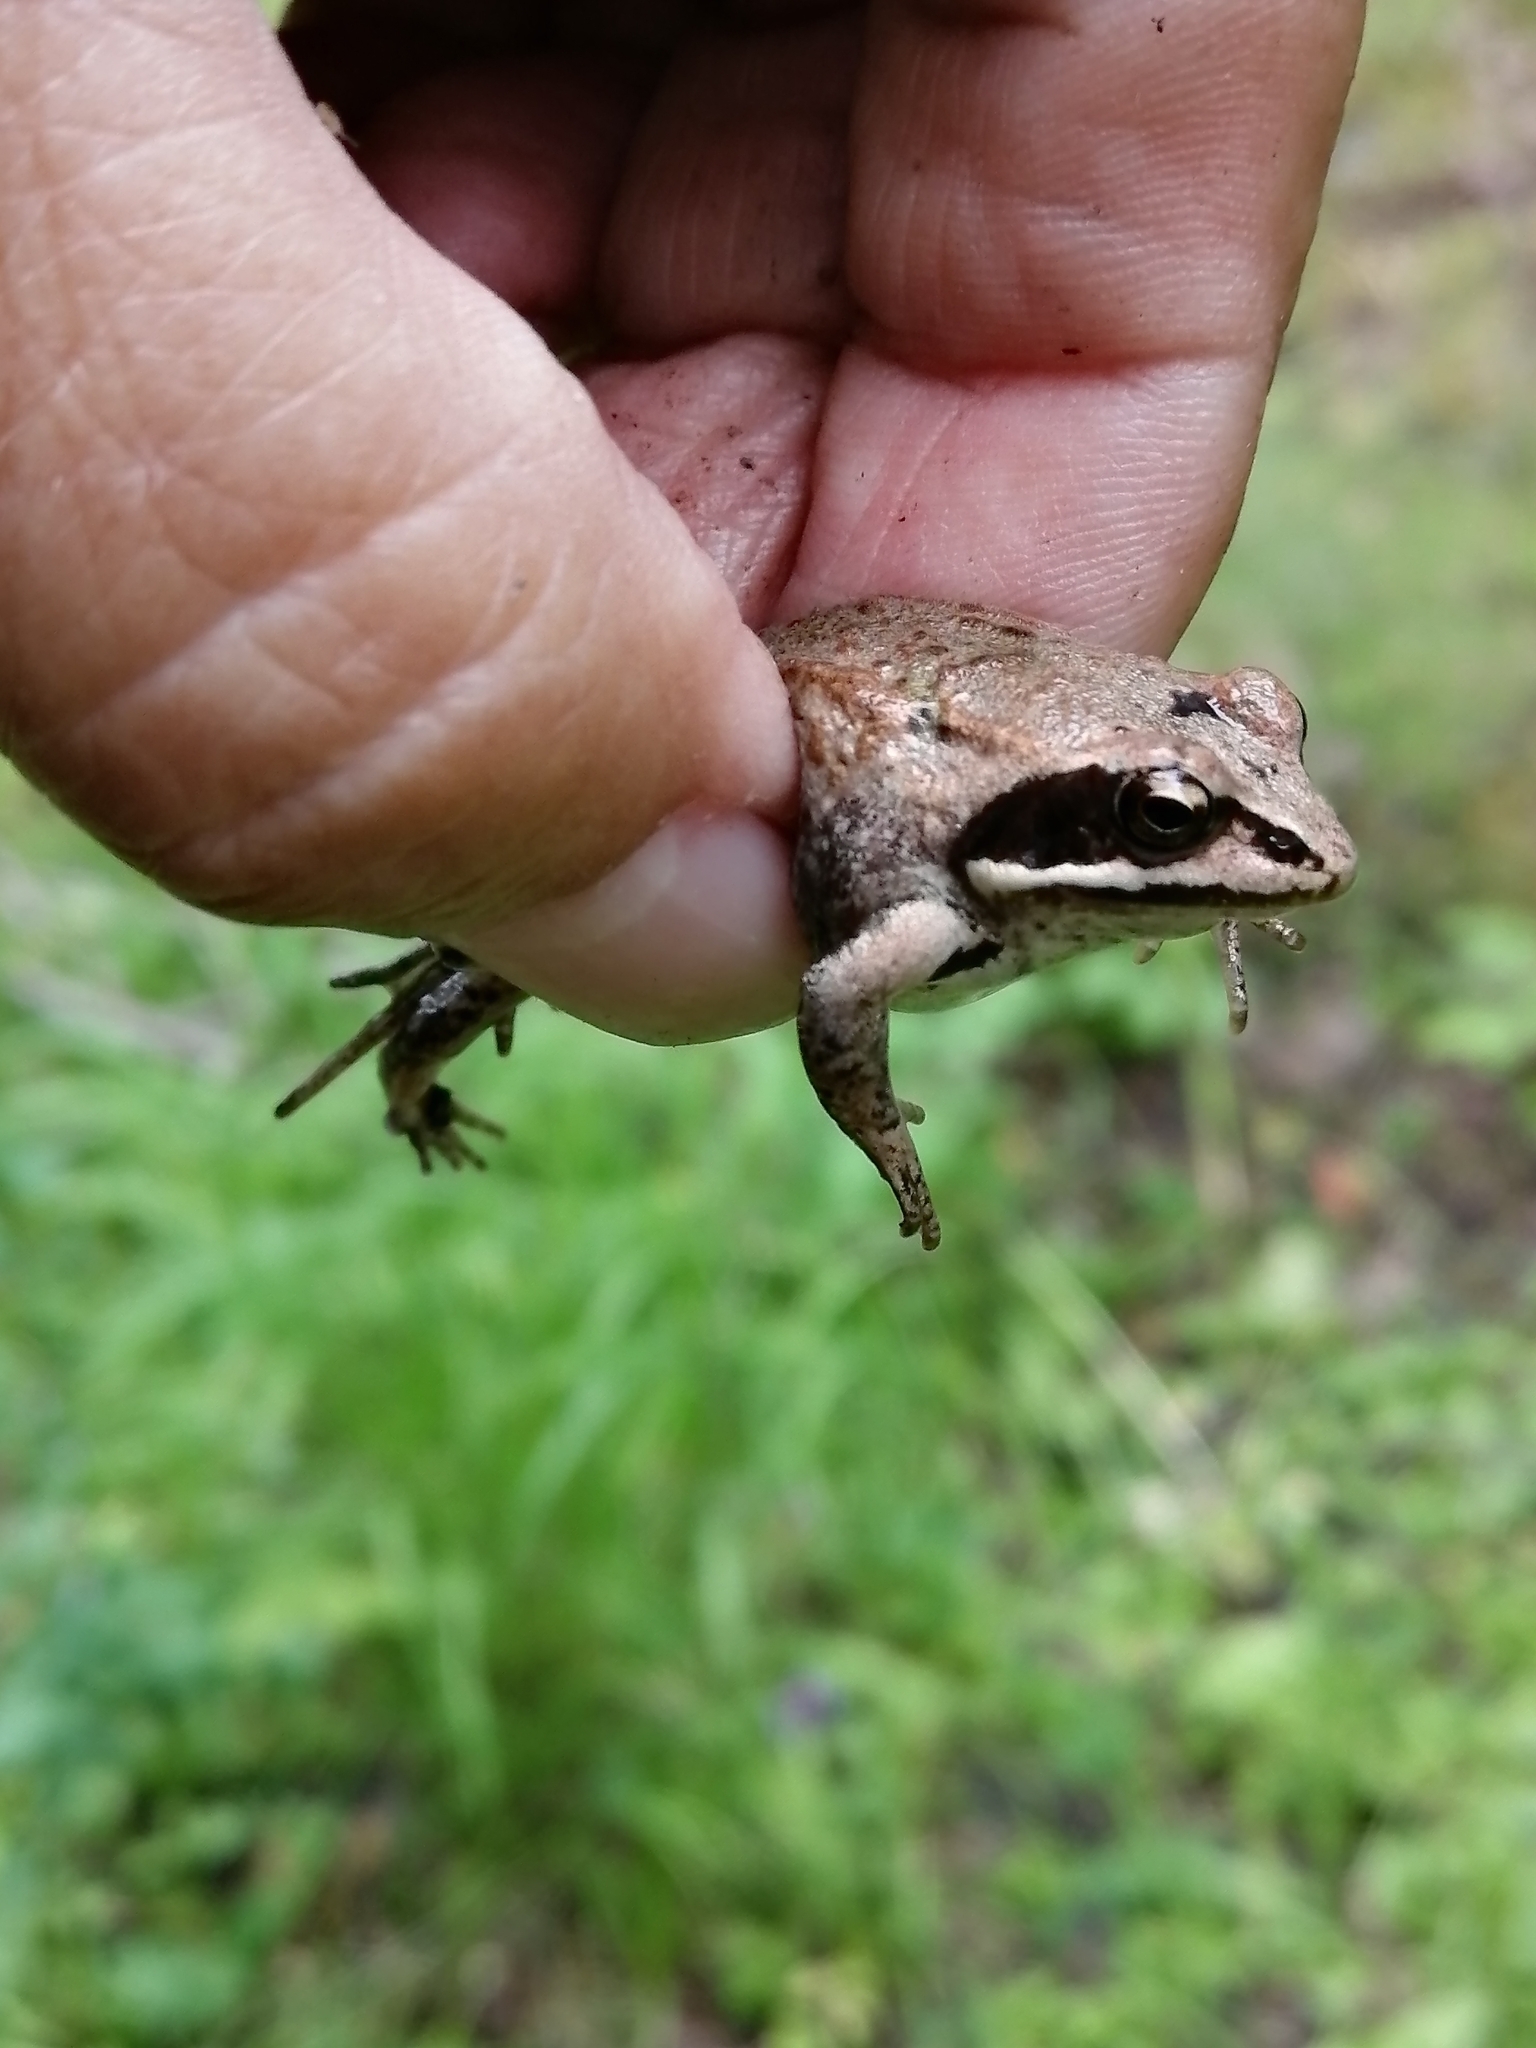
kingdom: Animalia
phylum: Chordata
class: Amphibia
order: Anura
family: Ranidae
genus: Rana
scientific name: Rana arvalis
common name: Moor frog
